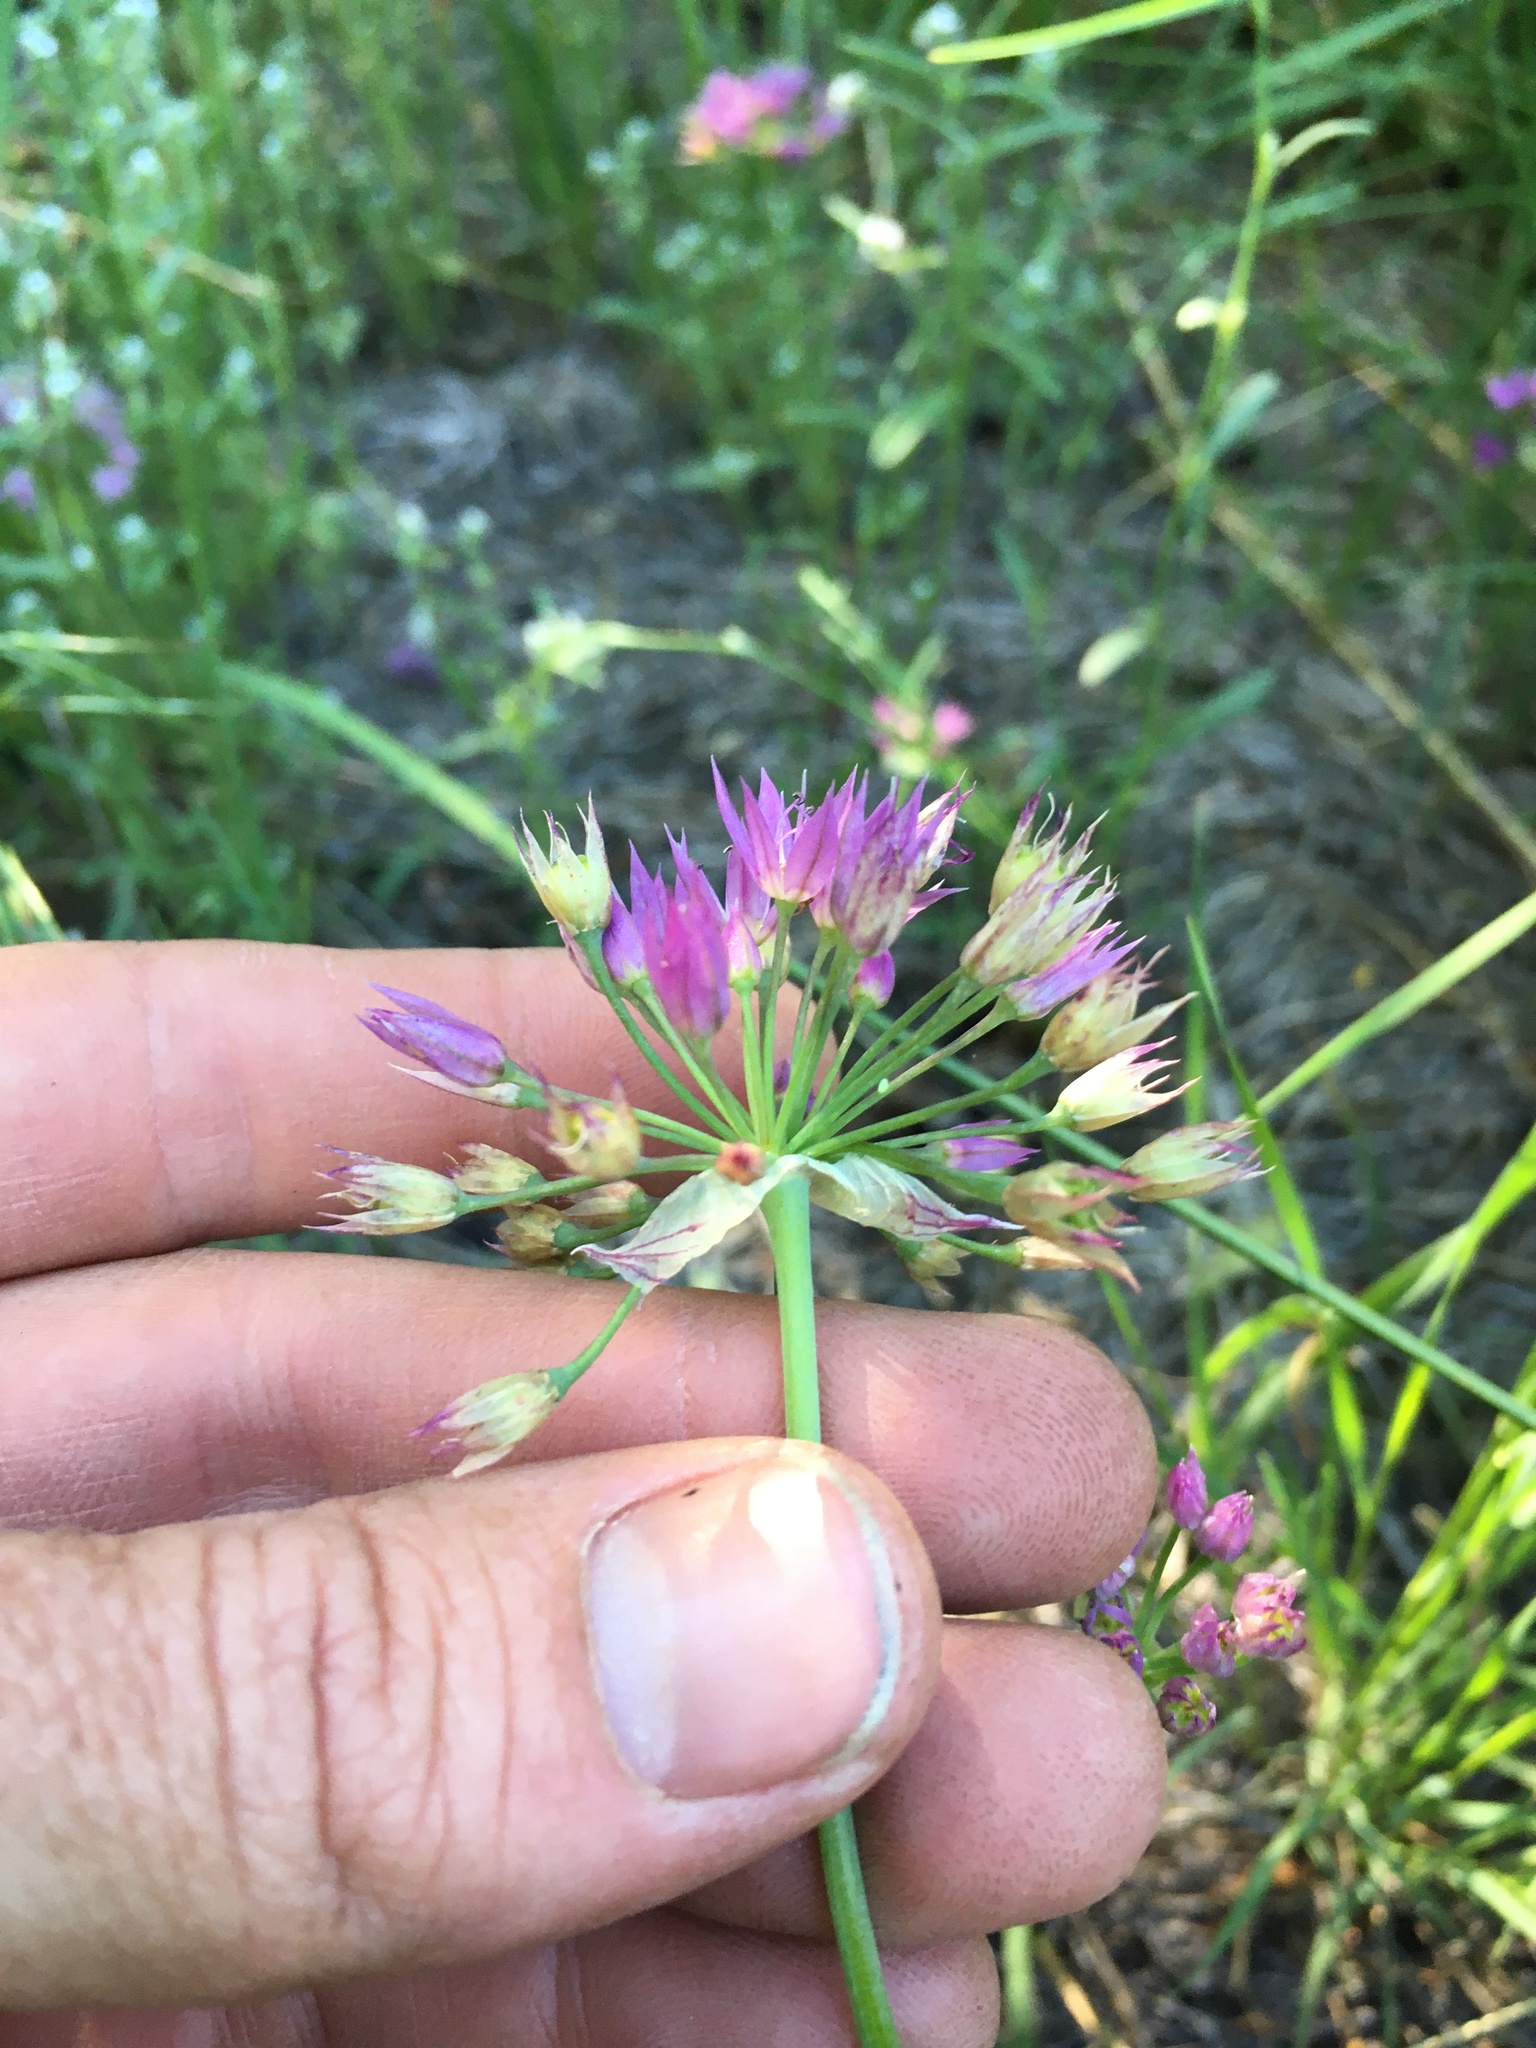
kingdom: Plantae
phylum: Tracheophyta
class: Liliopsida
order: Asparagales
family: Amaryllidaceae
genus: Allium
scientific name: Allium bisceptrum
